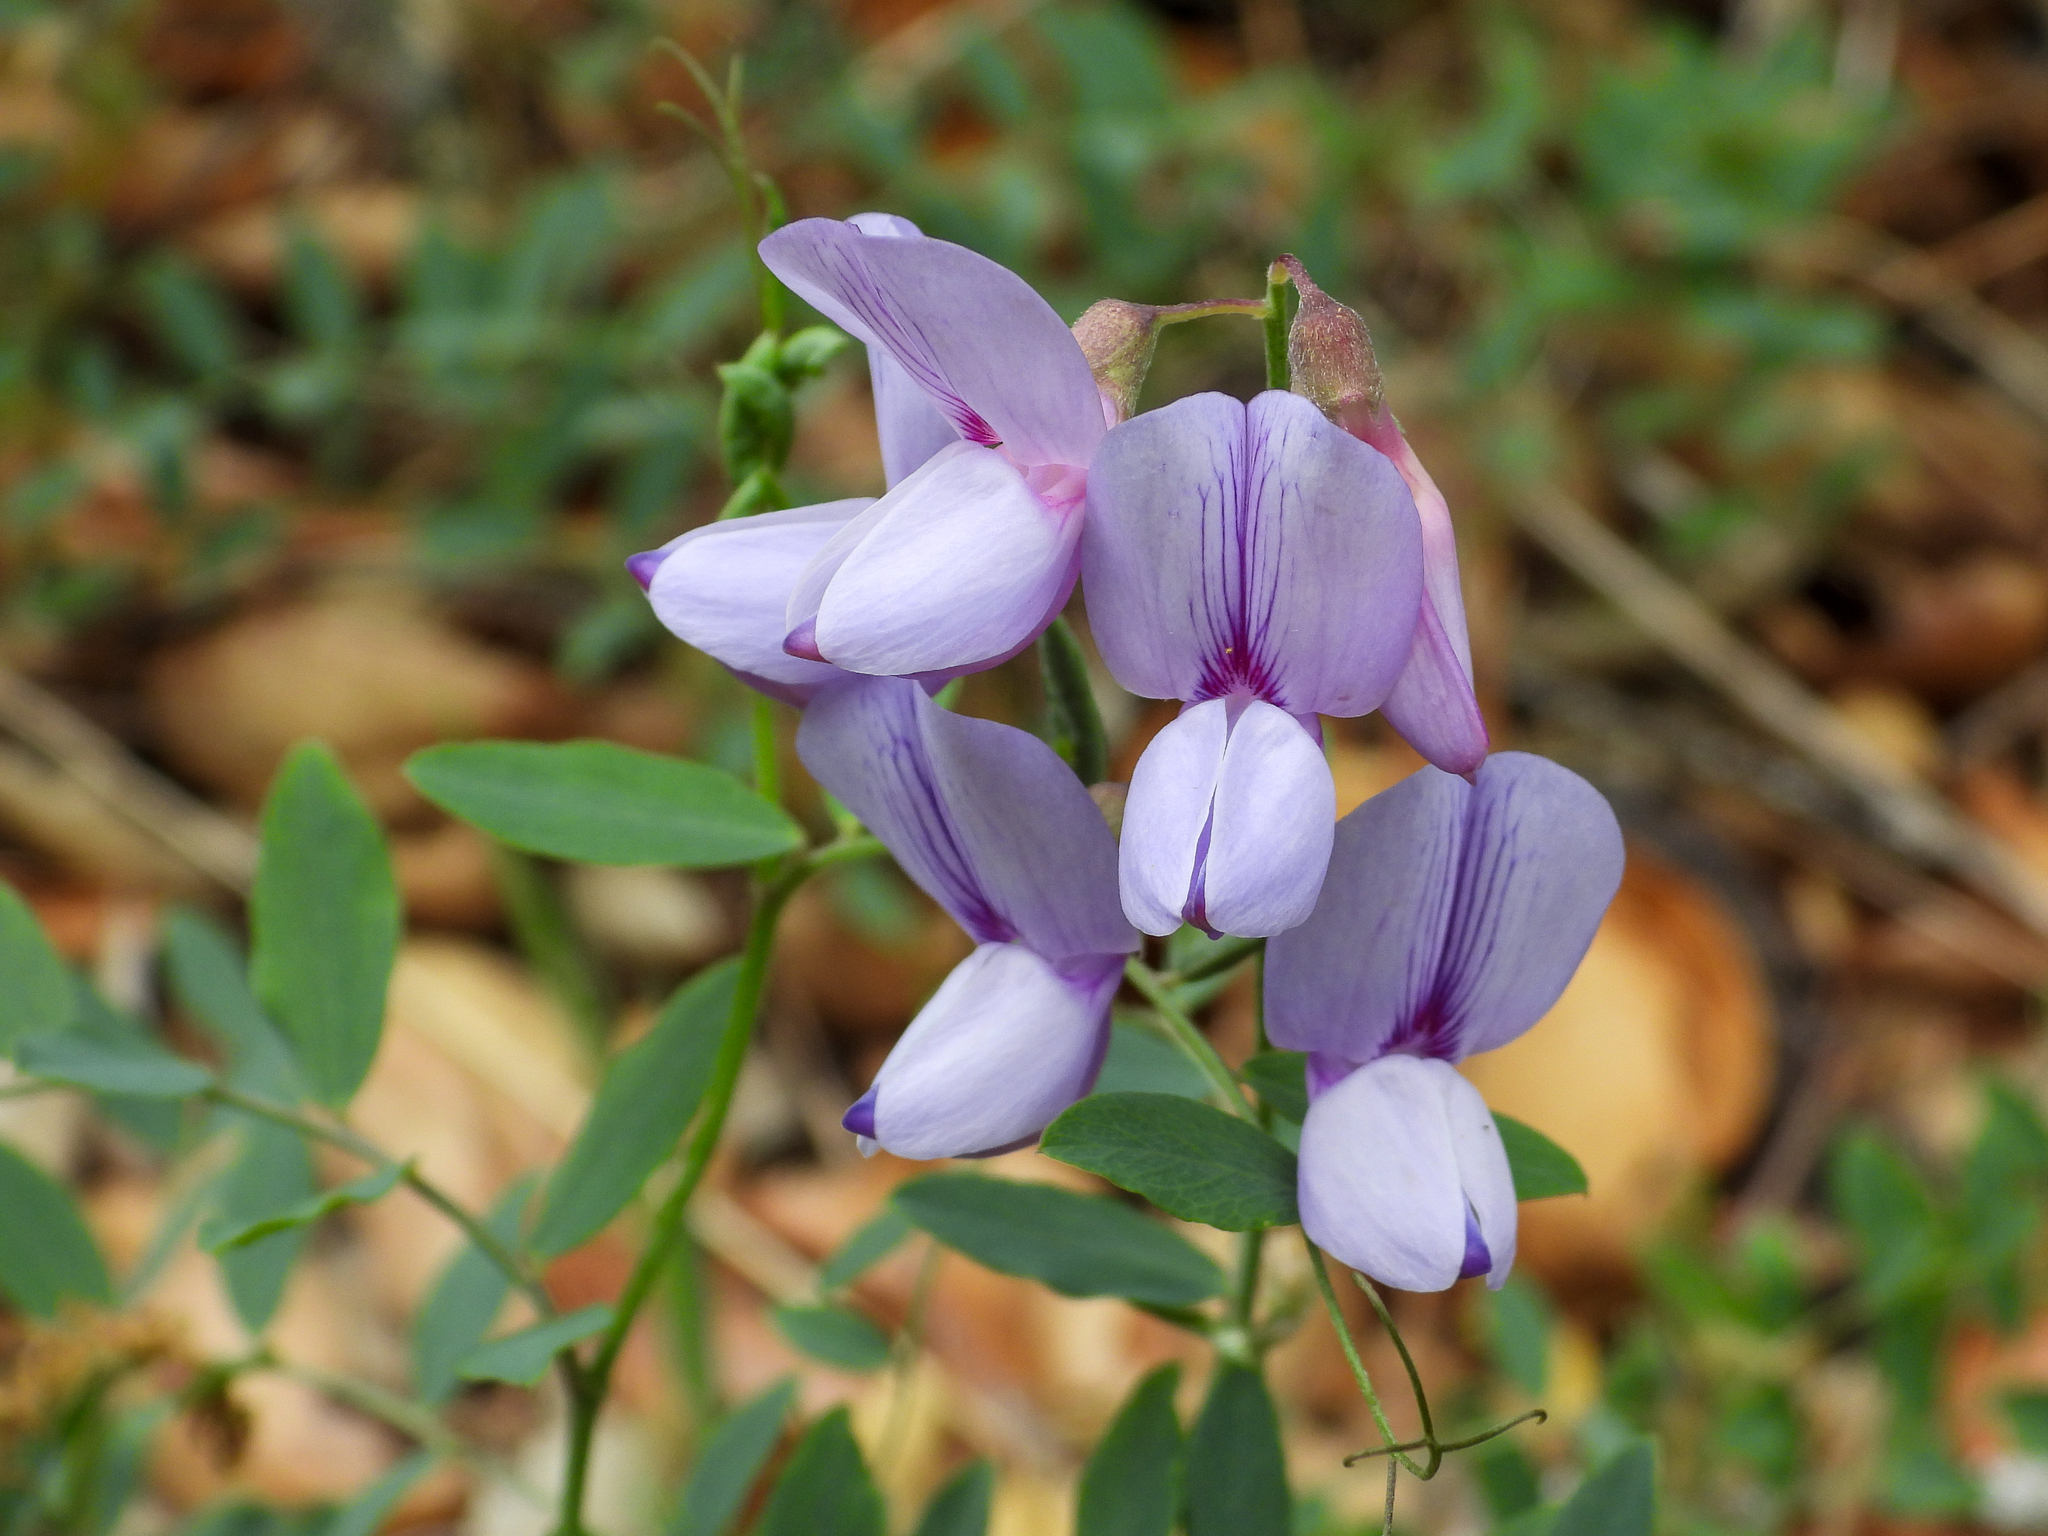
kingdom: Plantae
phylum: Tracheophyta
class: Magnoliopsida
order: Fabales
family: Fabaceae
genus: Lathyrus
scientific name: Lathyrus vestitus
